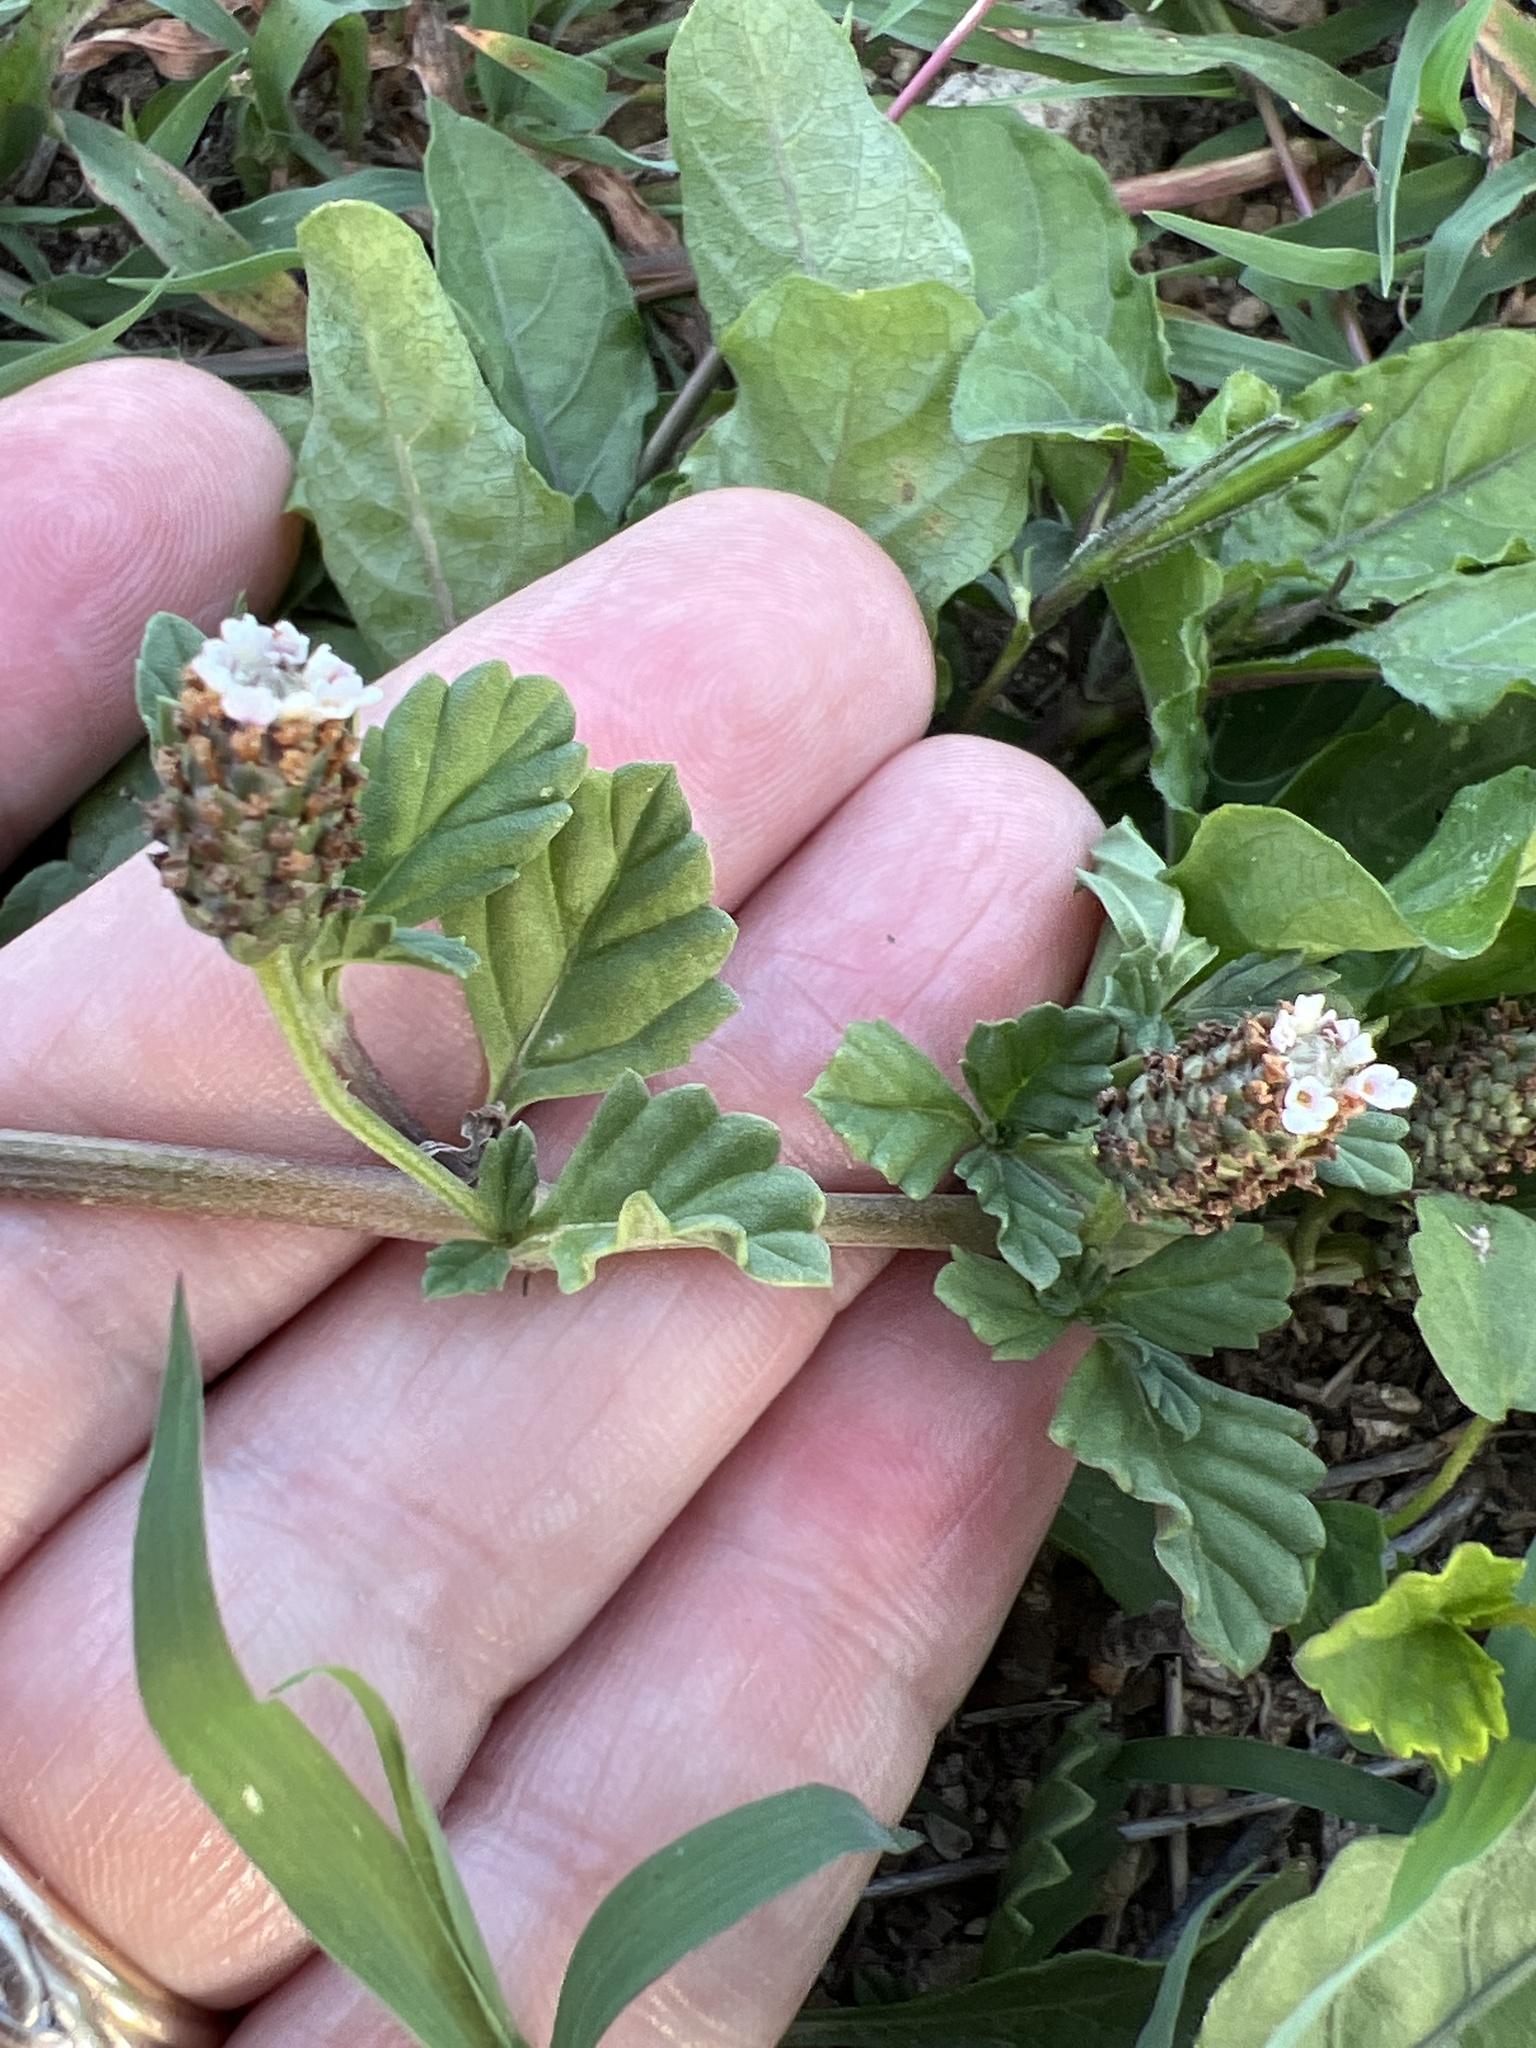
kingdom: Plantae
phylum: Tracheophyta
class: Magnoliopsida
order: Lamiales
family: Verbenaceae
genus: Phyla
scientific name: Phyla fruticosa
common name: Diamondleaf fogfruit
